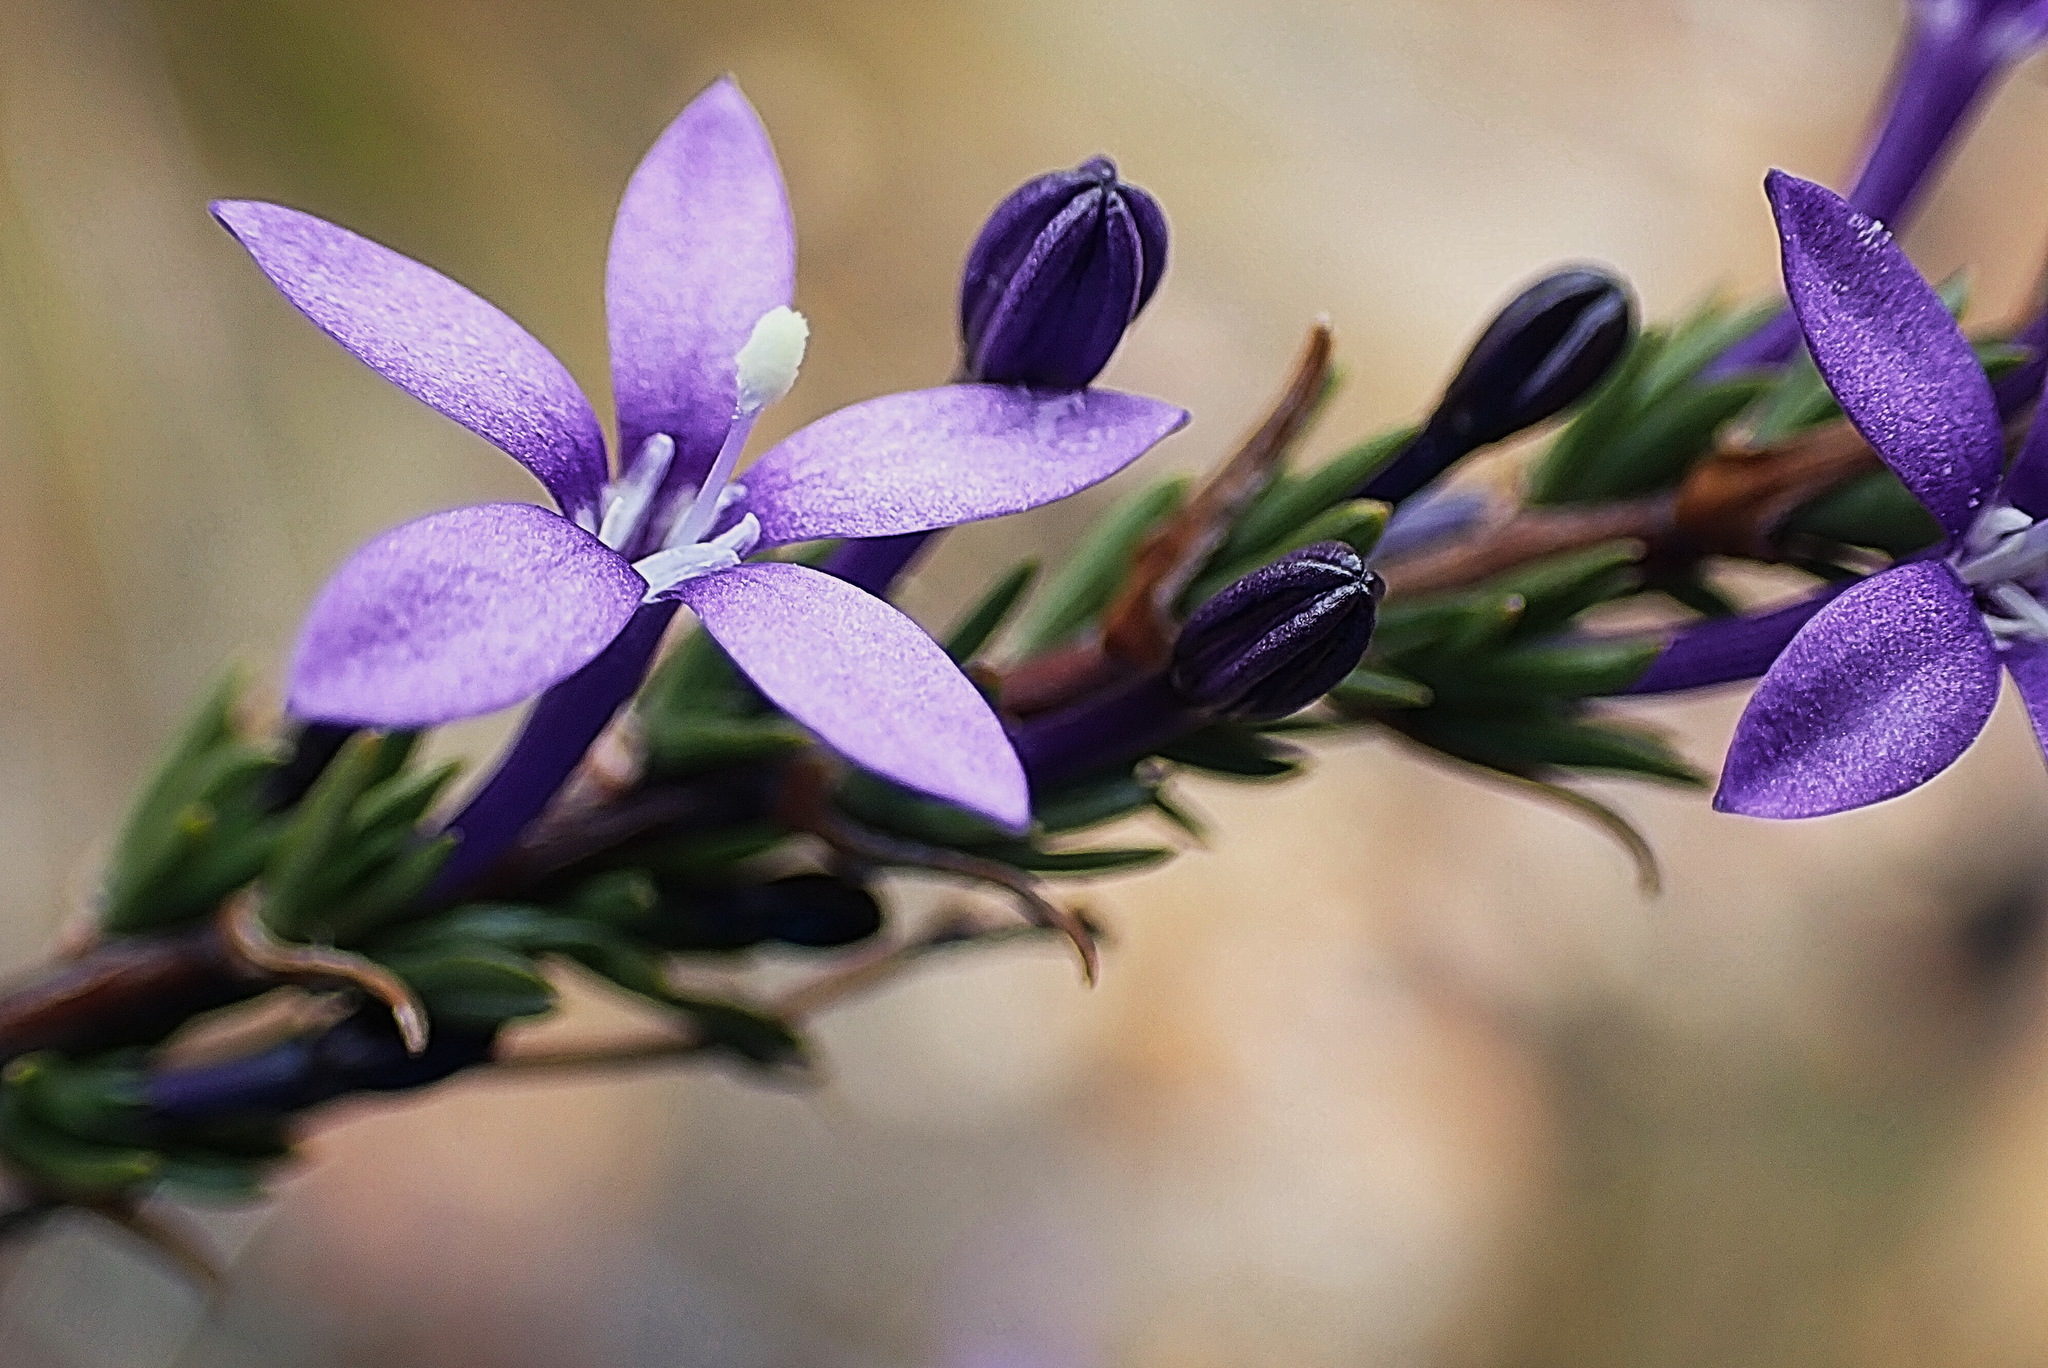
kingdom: Plantae
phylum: Tracheophyta
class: Magnoliopsida
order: Asterales
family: Campanulaceae
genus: Theilera
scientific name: Theilera guthriei
